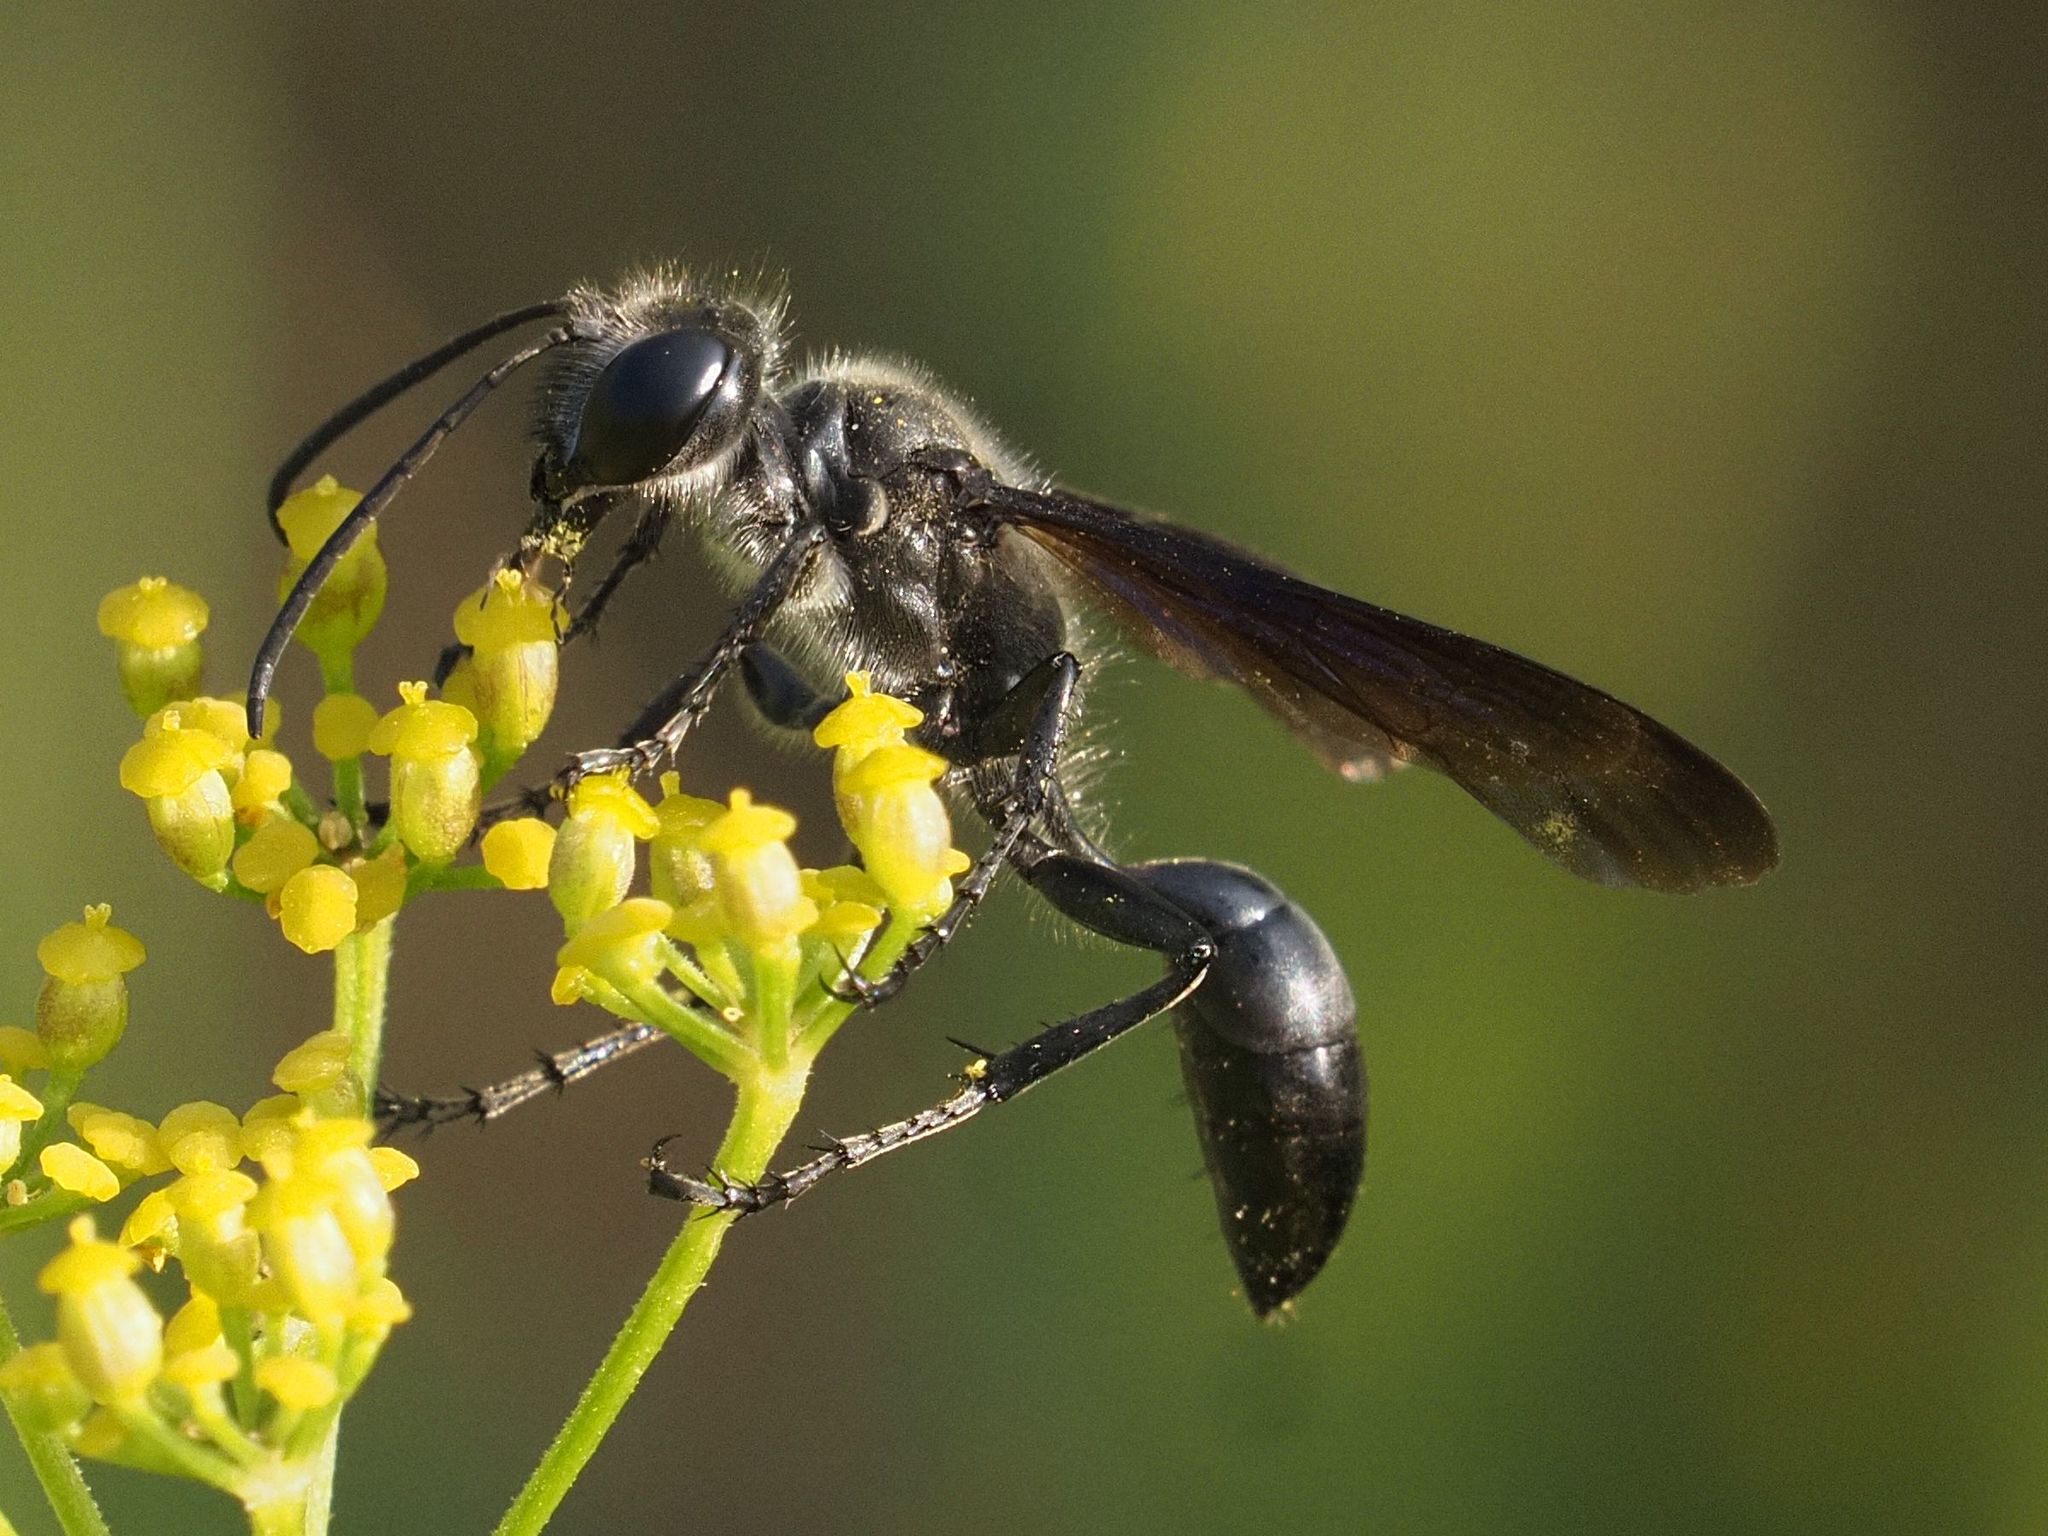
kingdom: Animalia
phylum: Arthropoda
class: Insecta
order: Hymenoptera
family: Sphecidae
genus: Isodontia
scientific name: Isodontia mexicana
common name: Mud dauber
